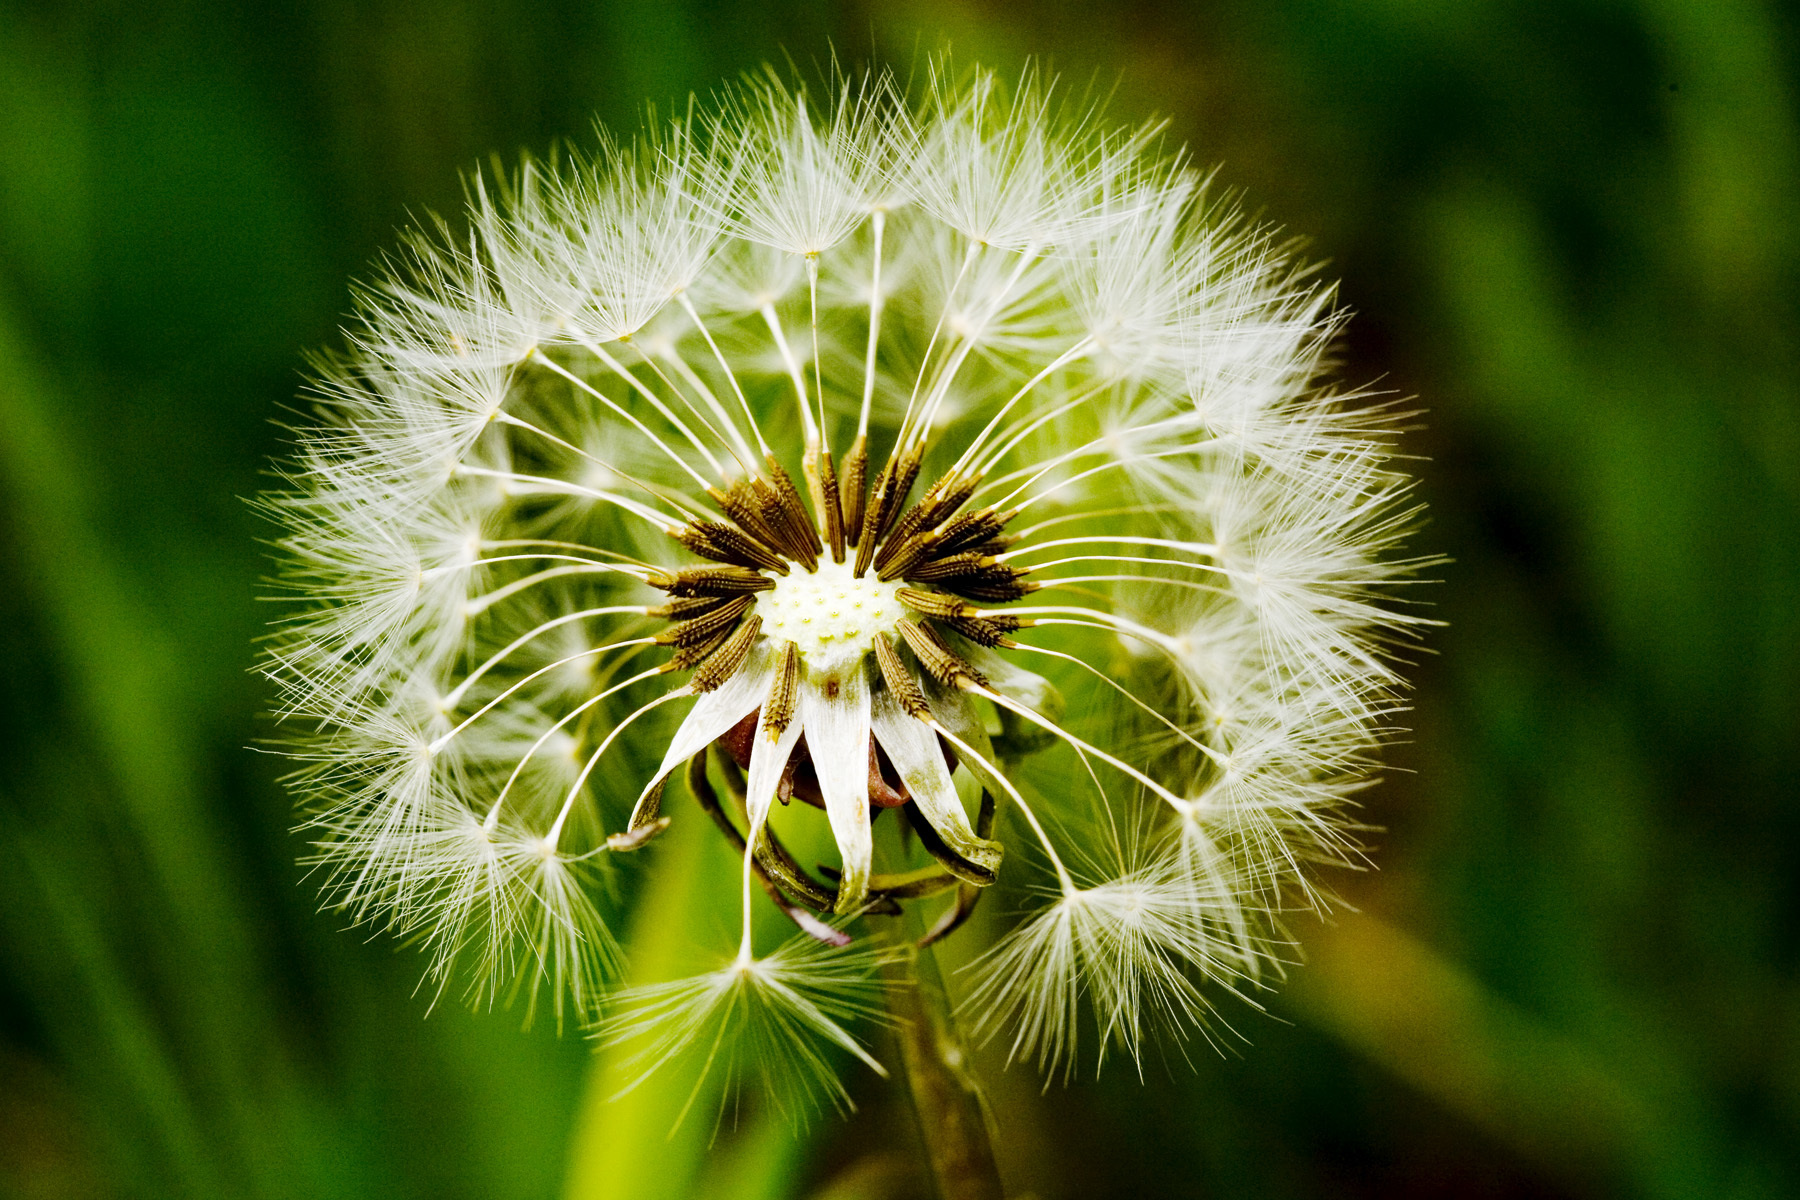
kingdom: Plantae
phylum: Tracheophyta
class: Magnoliopsida
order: Asterales
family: Asteraceae
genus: Taraxacum
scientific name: Taraxacum officinale
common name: Common dandelion
